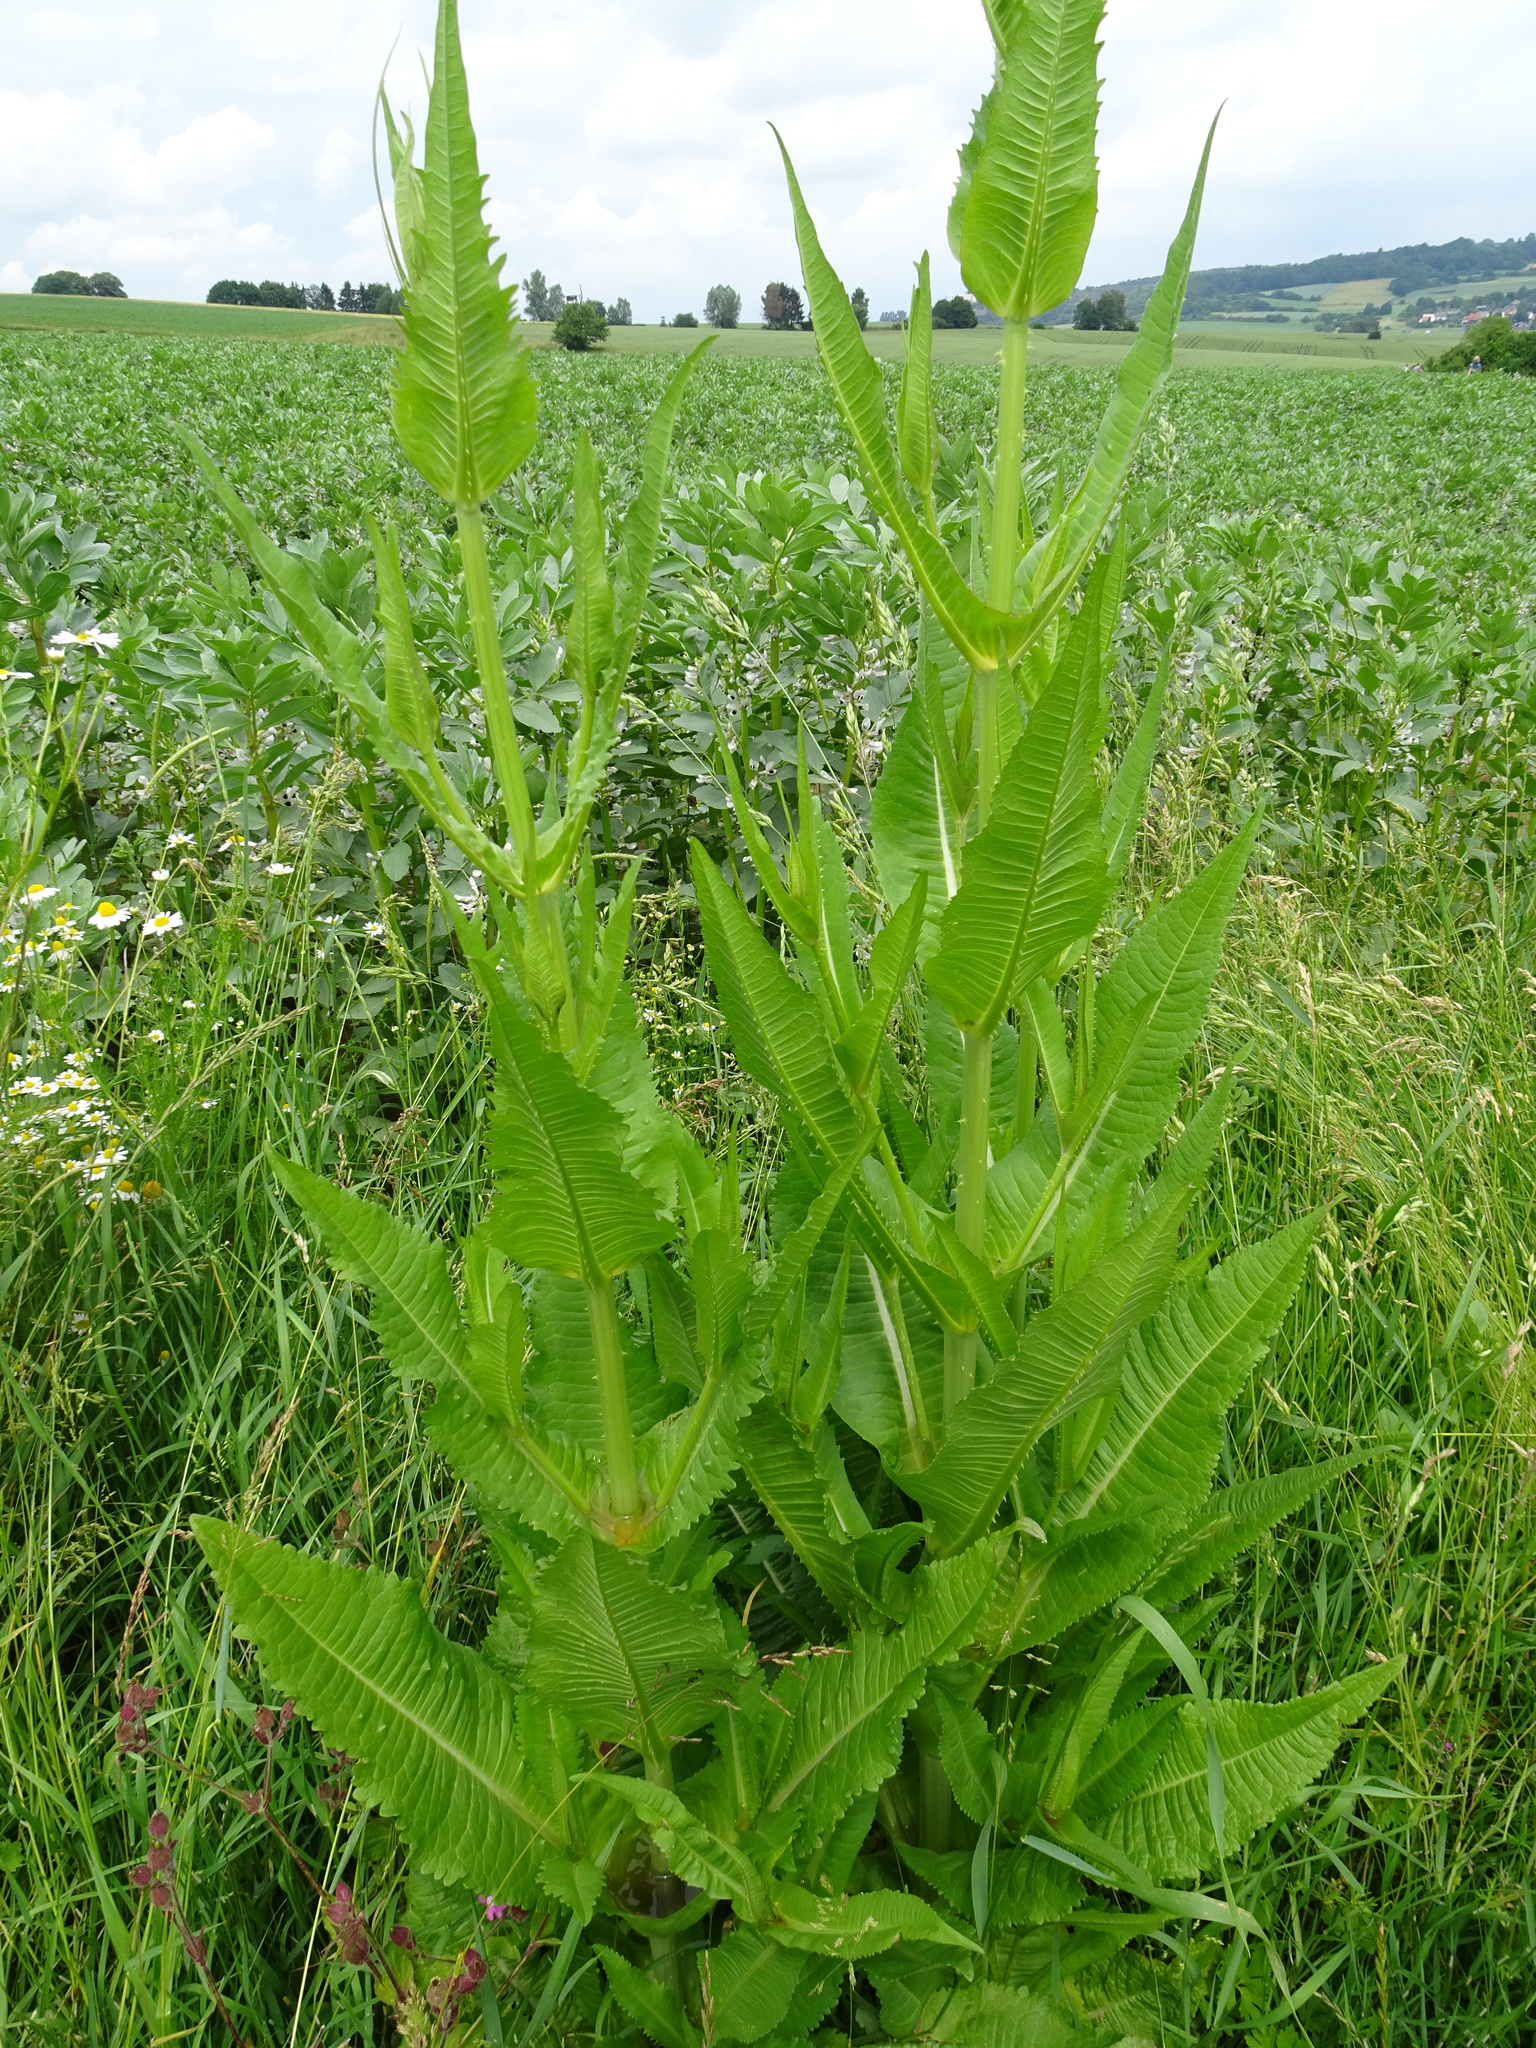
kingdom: Plantae
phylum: Tracheophyta
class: Magnoliopsida
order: Dipsacales
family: Caprifoliaceae
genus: Dipsacus
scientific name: Dipsacus fullonum
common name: Teasel
